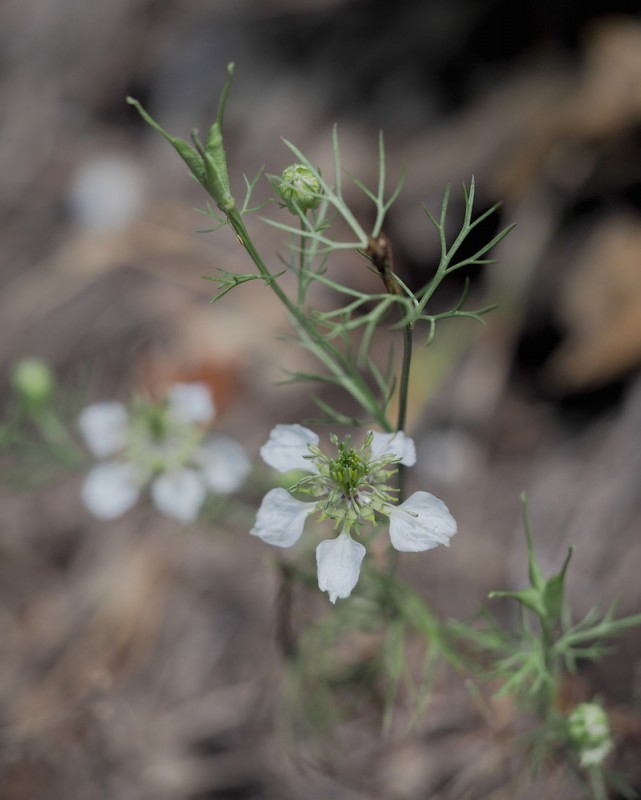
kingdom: Plantae
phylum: Tracheophyta
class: Magnoliopsida
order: Ranunculales
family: Ranunculaceae
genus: Nigella
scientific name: Nigella arvensis
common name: Wild fennel-flower
